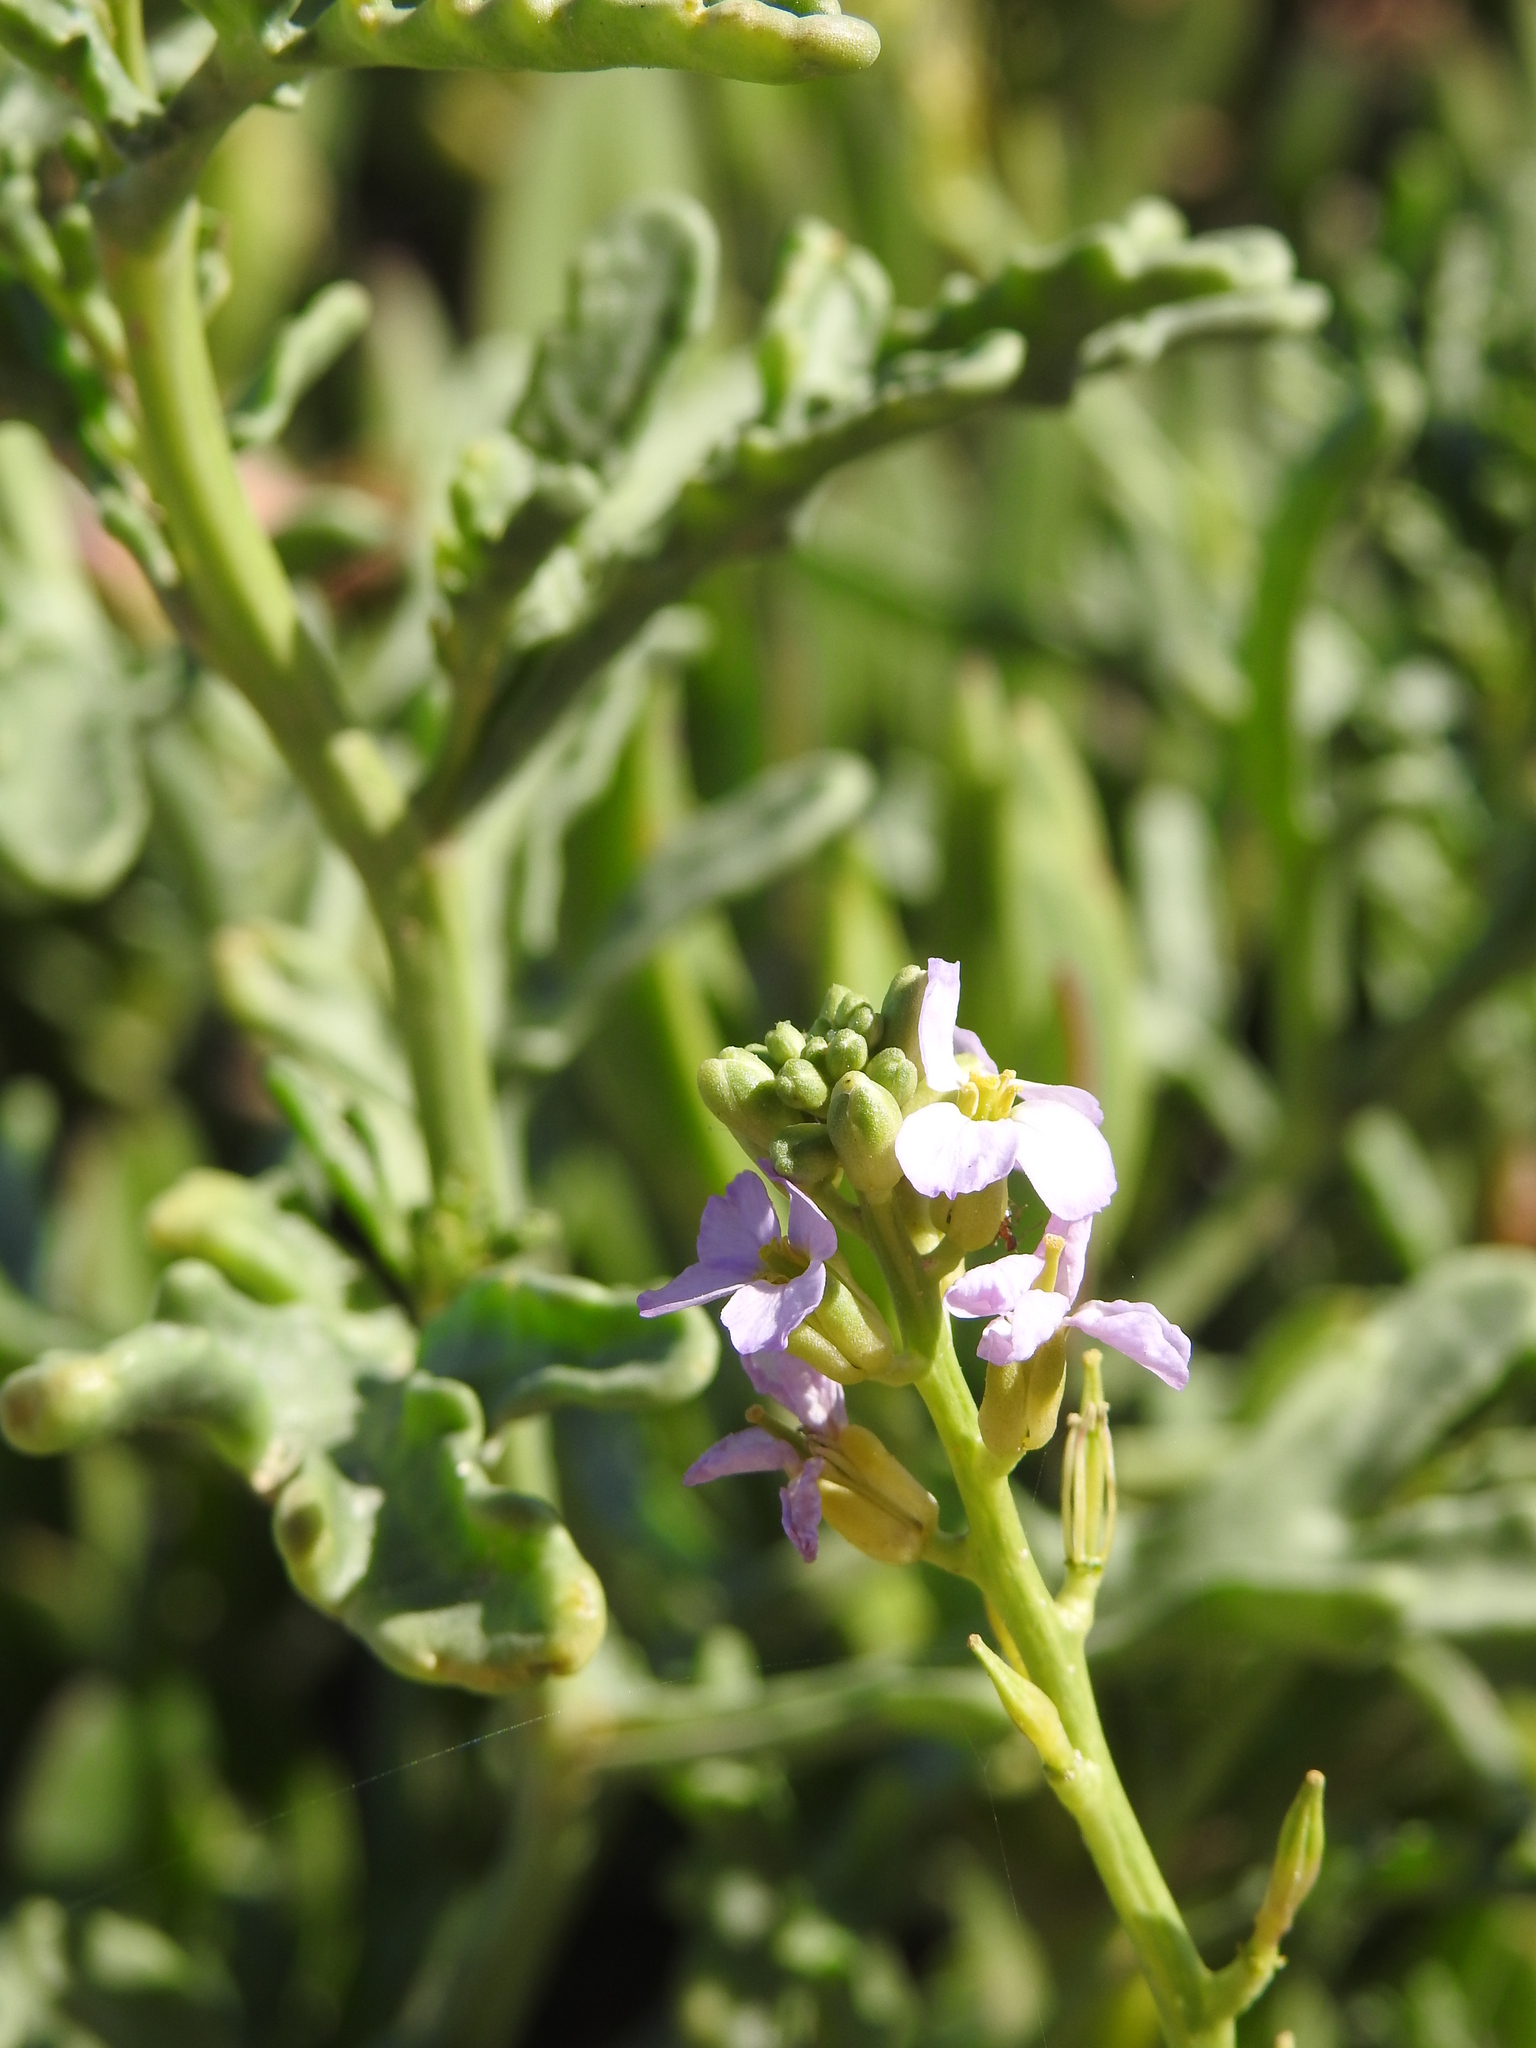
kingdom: Plantae
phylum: Tracheophyta
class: Magnoliopsida
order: Brassicales
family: Brassicaceae
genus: Cakile
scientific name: Cakile maritima
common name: Sea rocket
